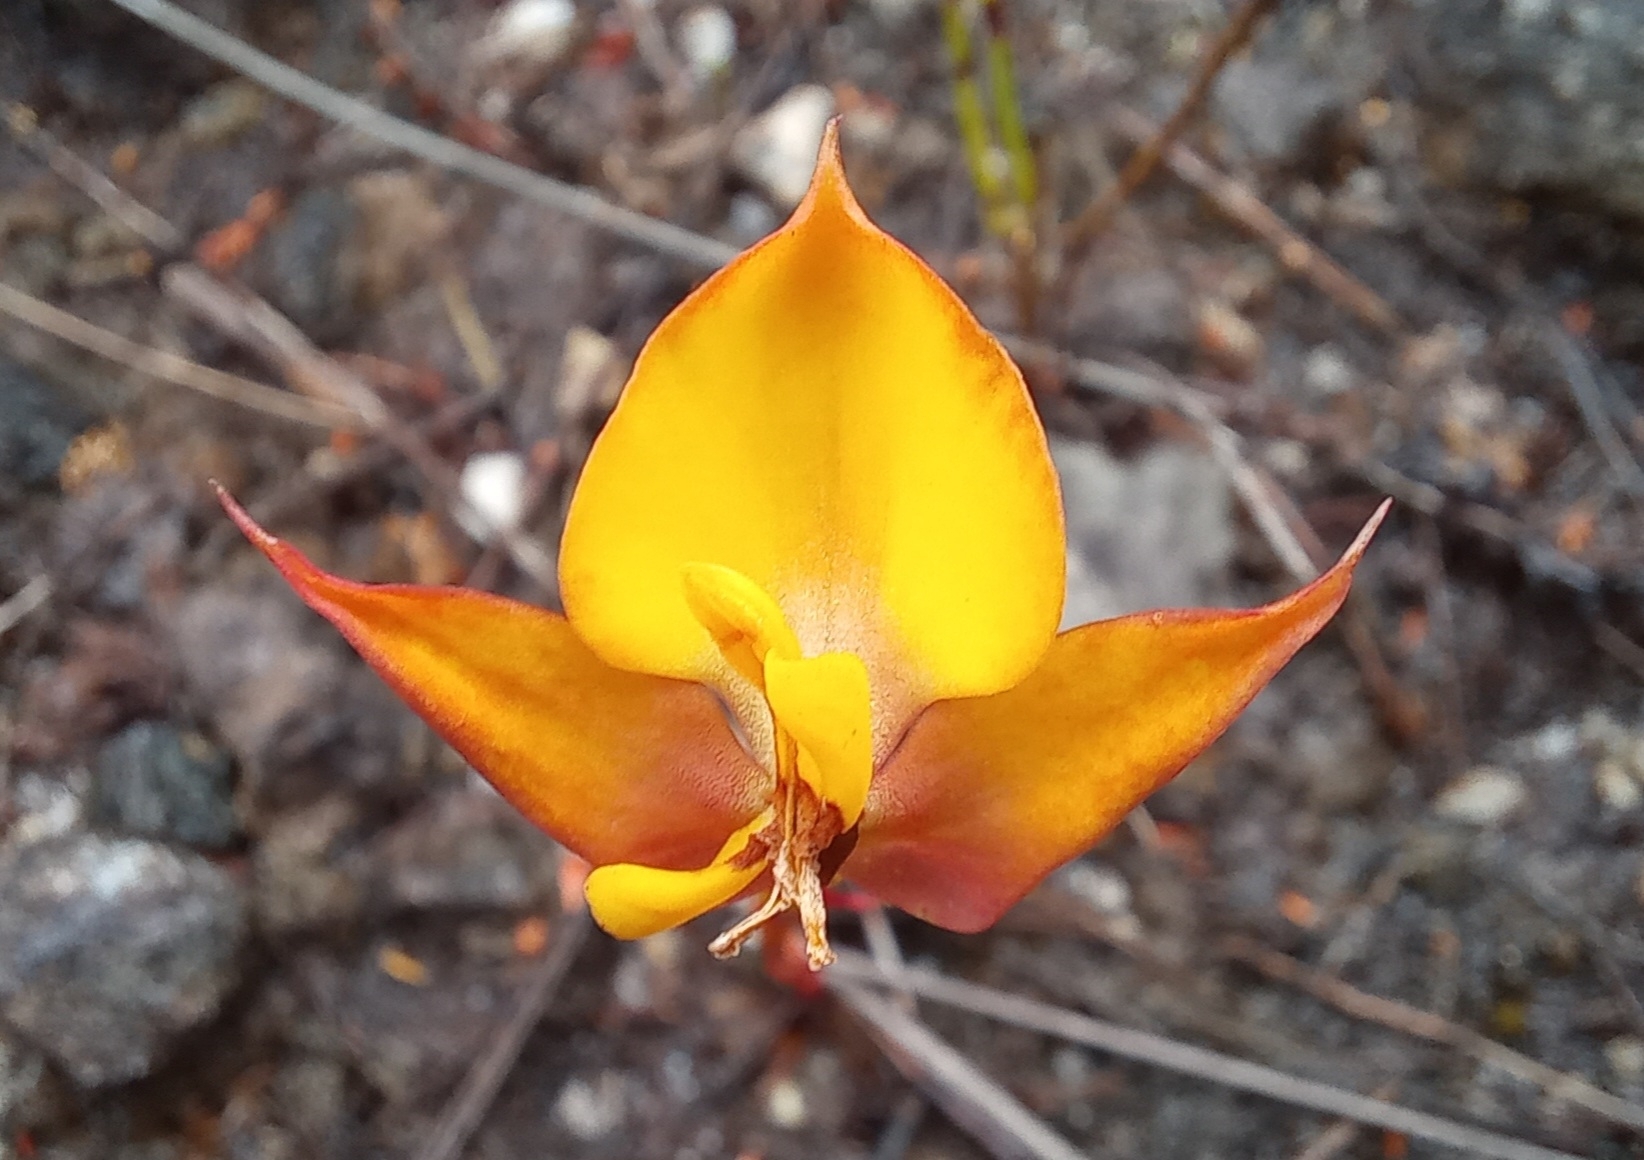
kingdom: Plantae
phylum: Tracheophyta
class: Liliopsida
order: Asparagales
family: Orchidaceae
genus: Disa
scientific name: Disa tenuifolia
